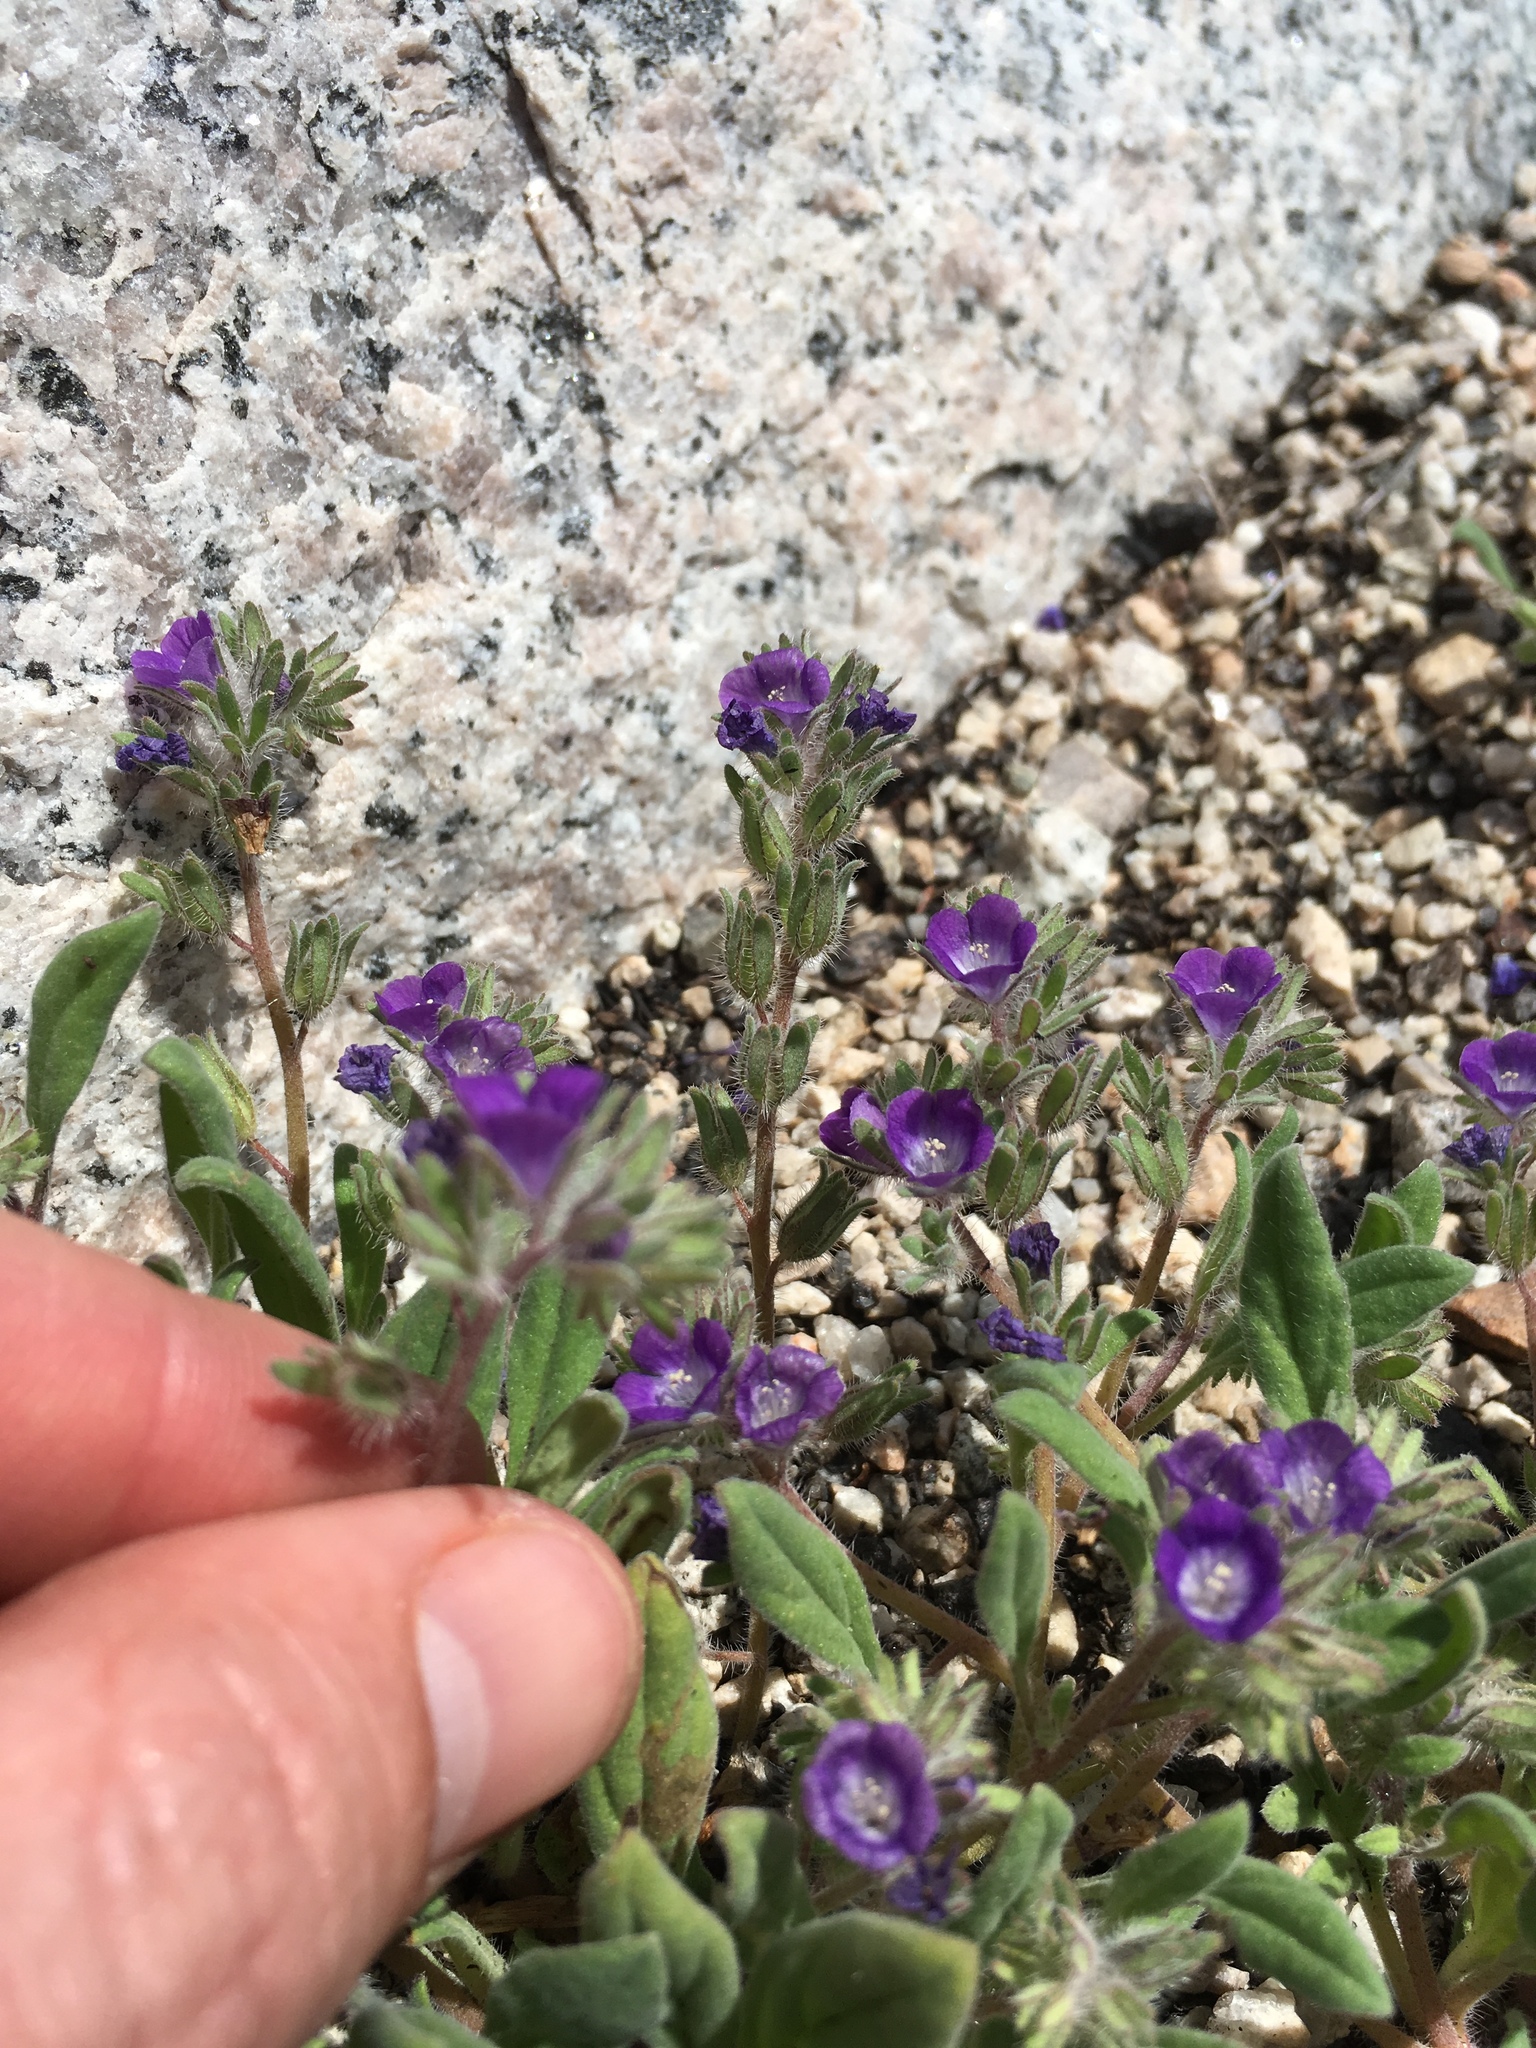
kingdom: Plantae
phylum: Tracheophyta
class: Magnoliopsida
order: Boraginales
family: Hydrophyllaceae
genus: Phacelia
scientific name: Phacelia curvipes
